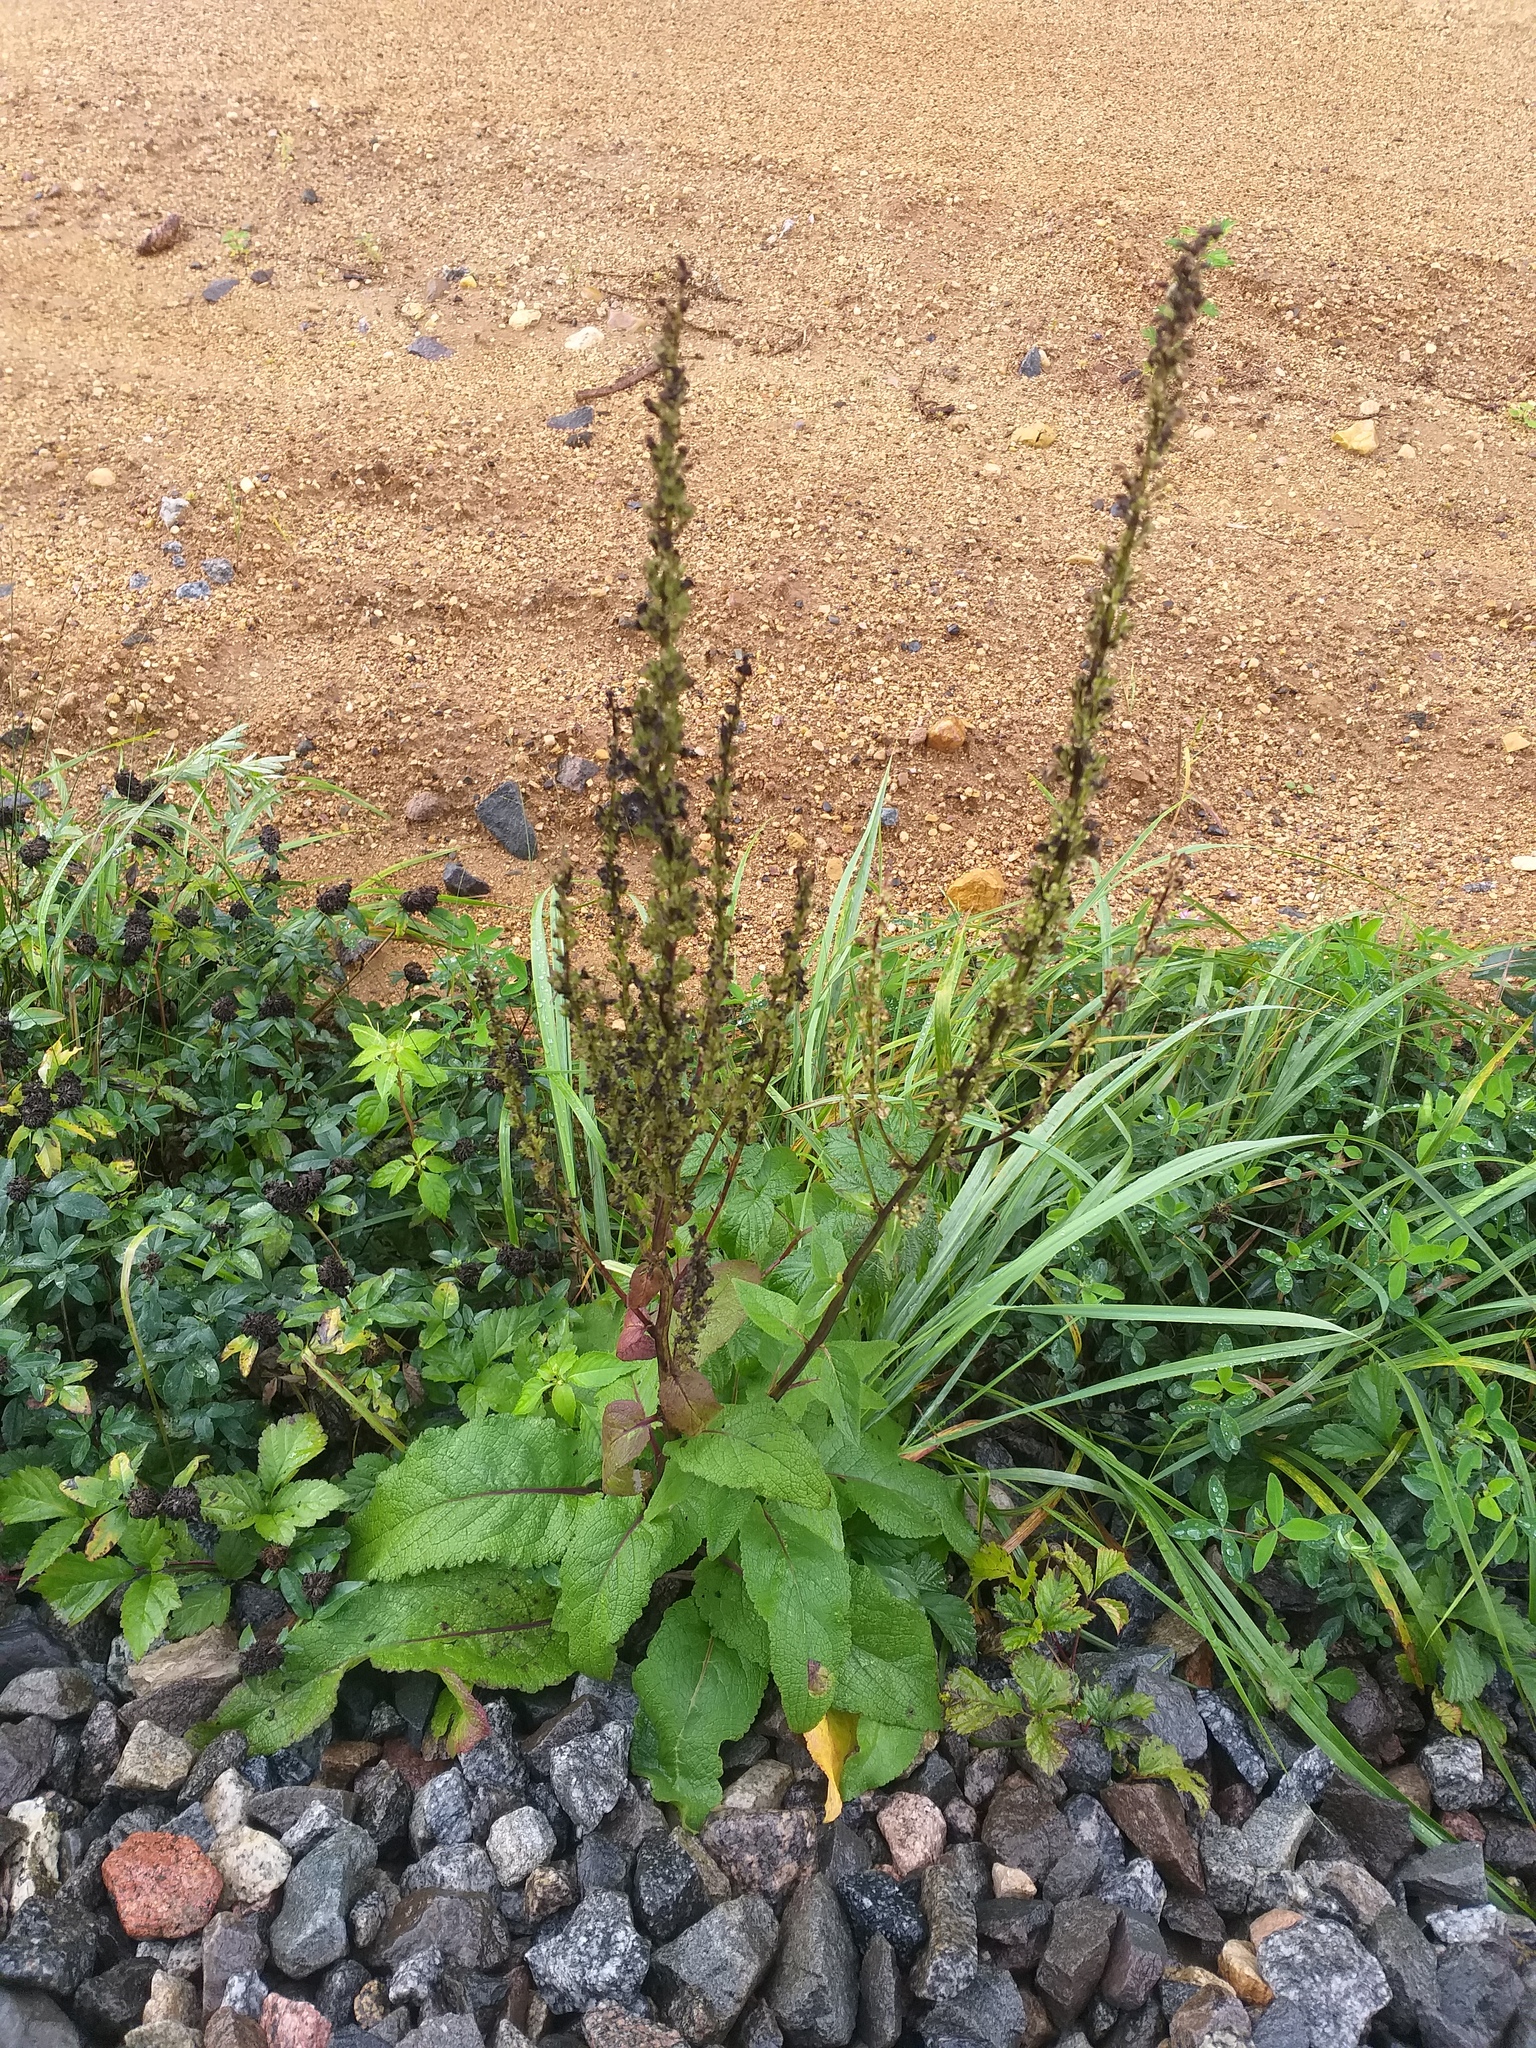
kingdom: Plantae
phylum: Tracheophyta
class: Magnoliopsida
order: Lamiales
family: Scrophulariaceae
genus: Verbascum
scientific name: Verbascum nigrum
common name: Dark mullein
